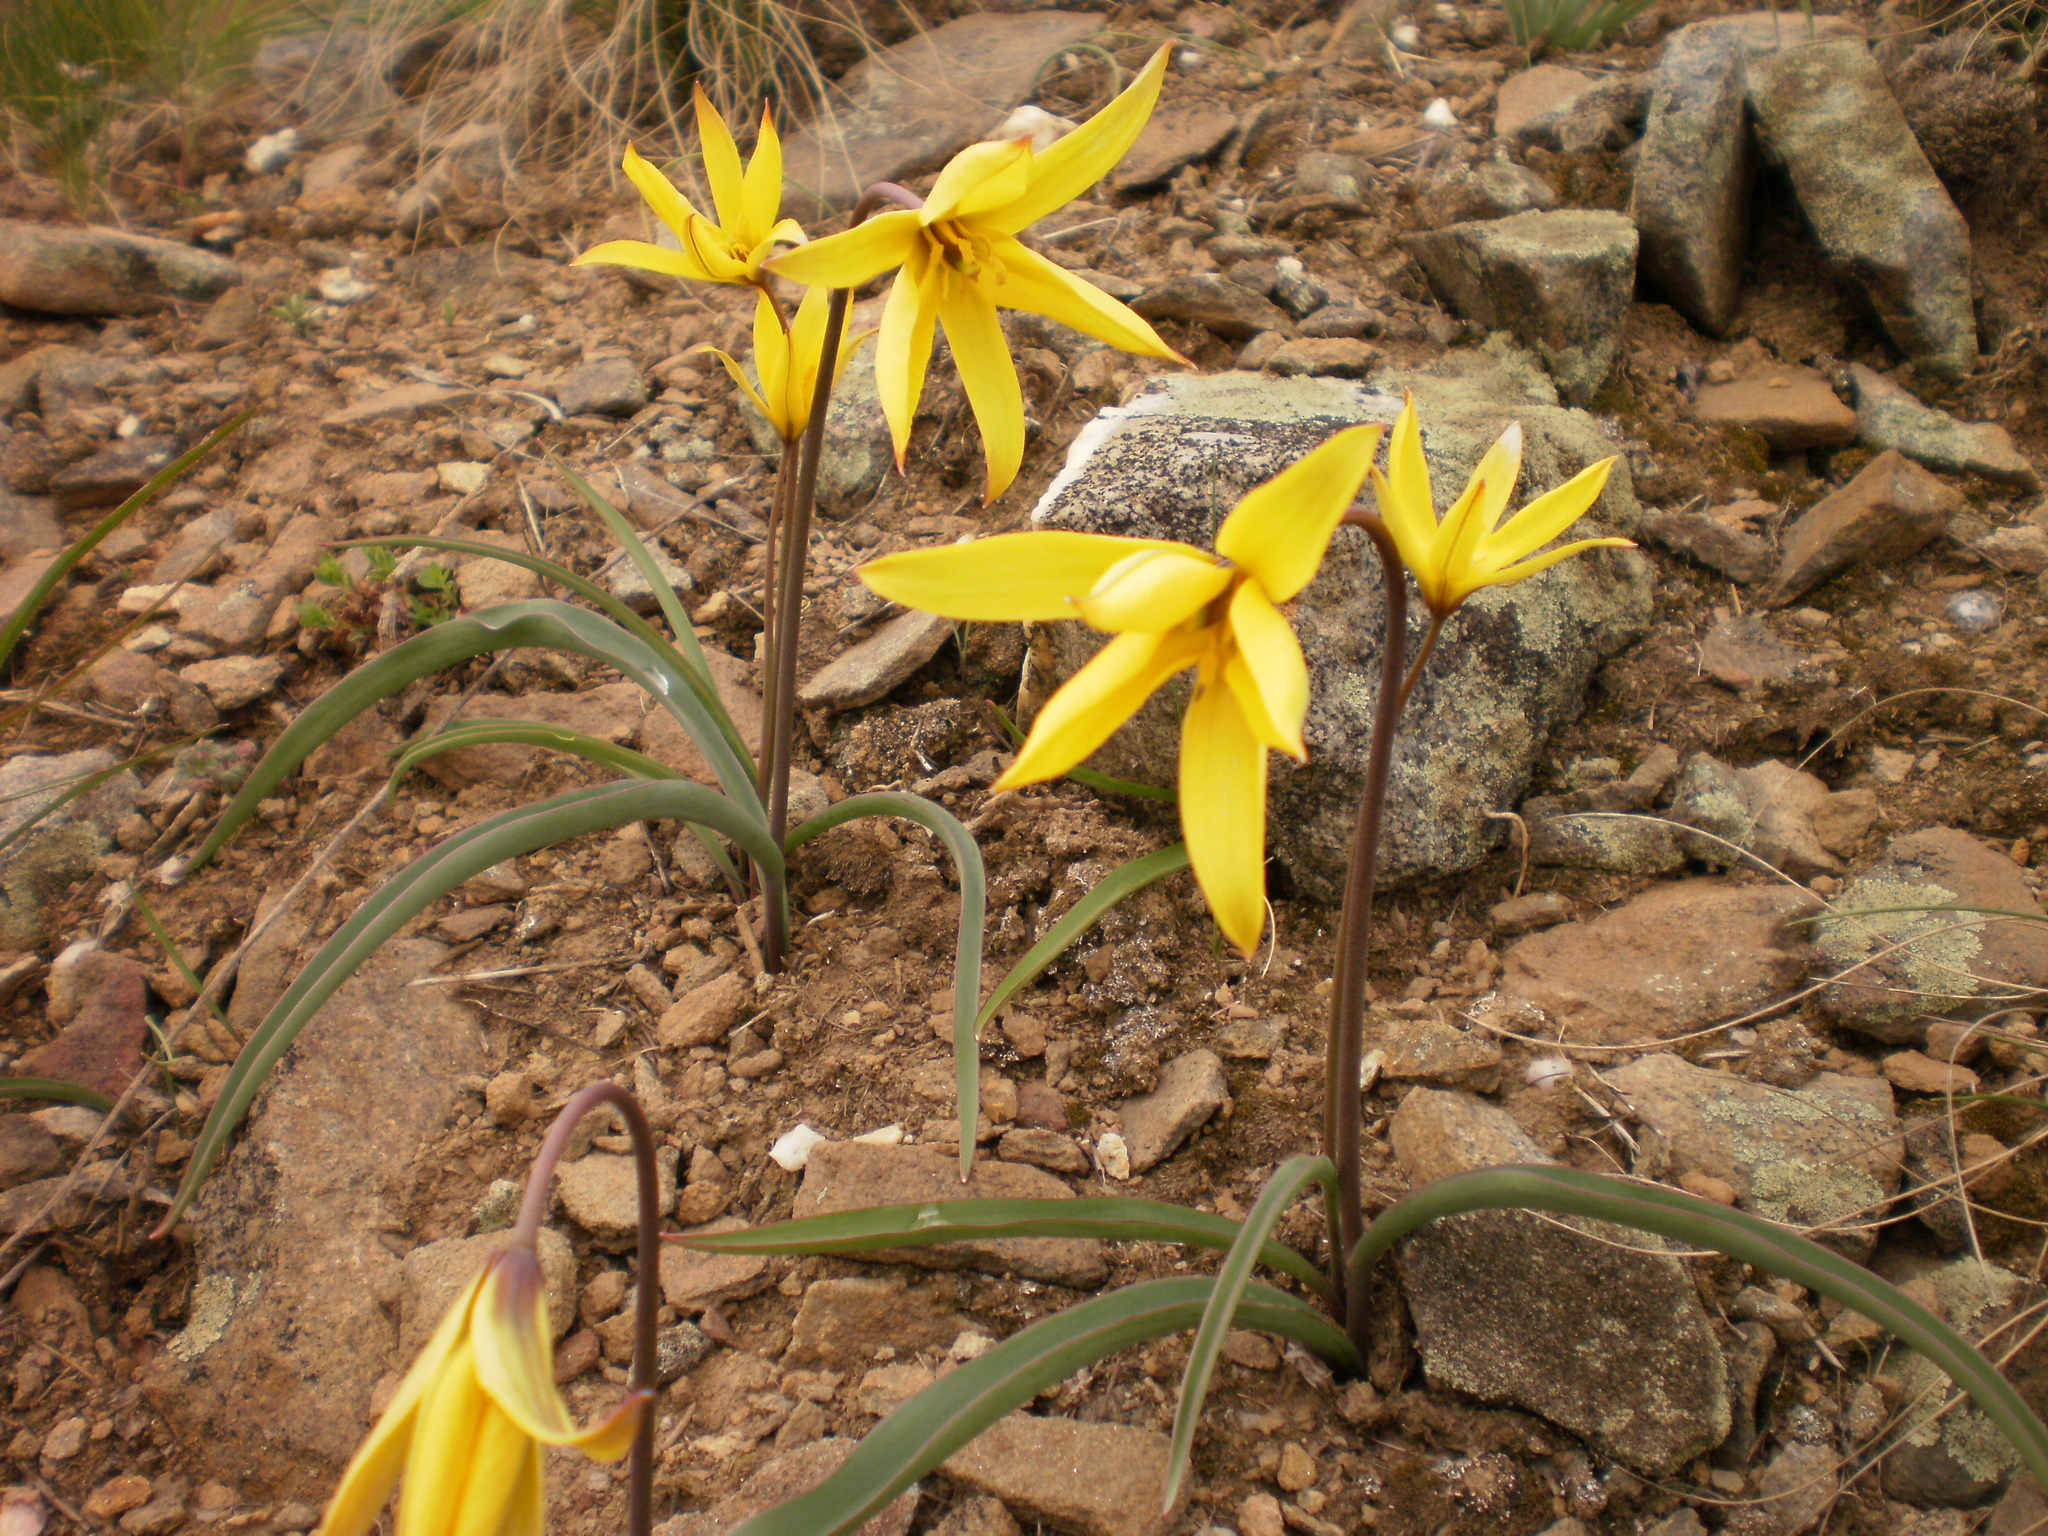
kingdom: Plantae
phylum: Tracheophyta
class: Liliopsida
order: Liliales
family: Liliaceae
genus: Tulipa
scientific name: Tulipa sylvestris
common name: Wild tulip
